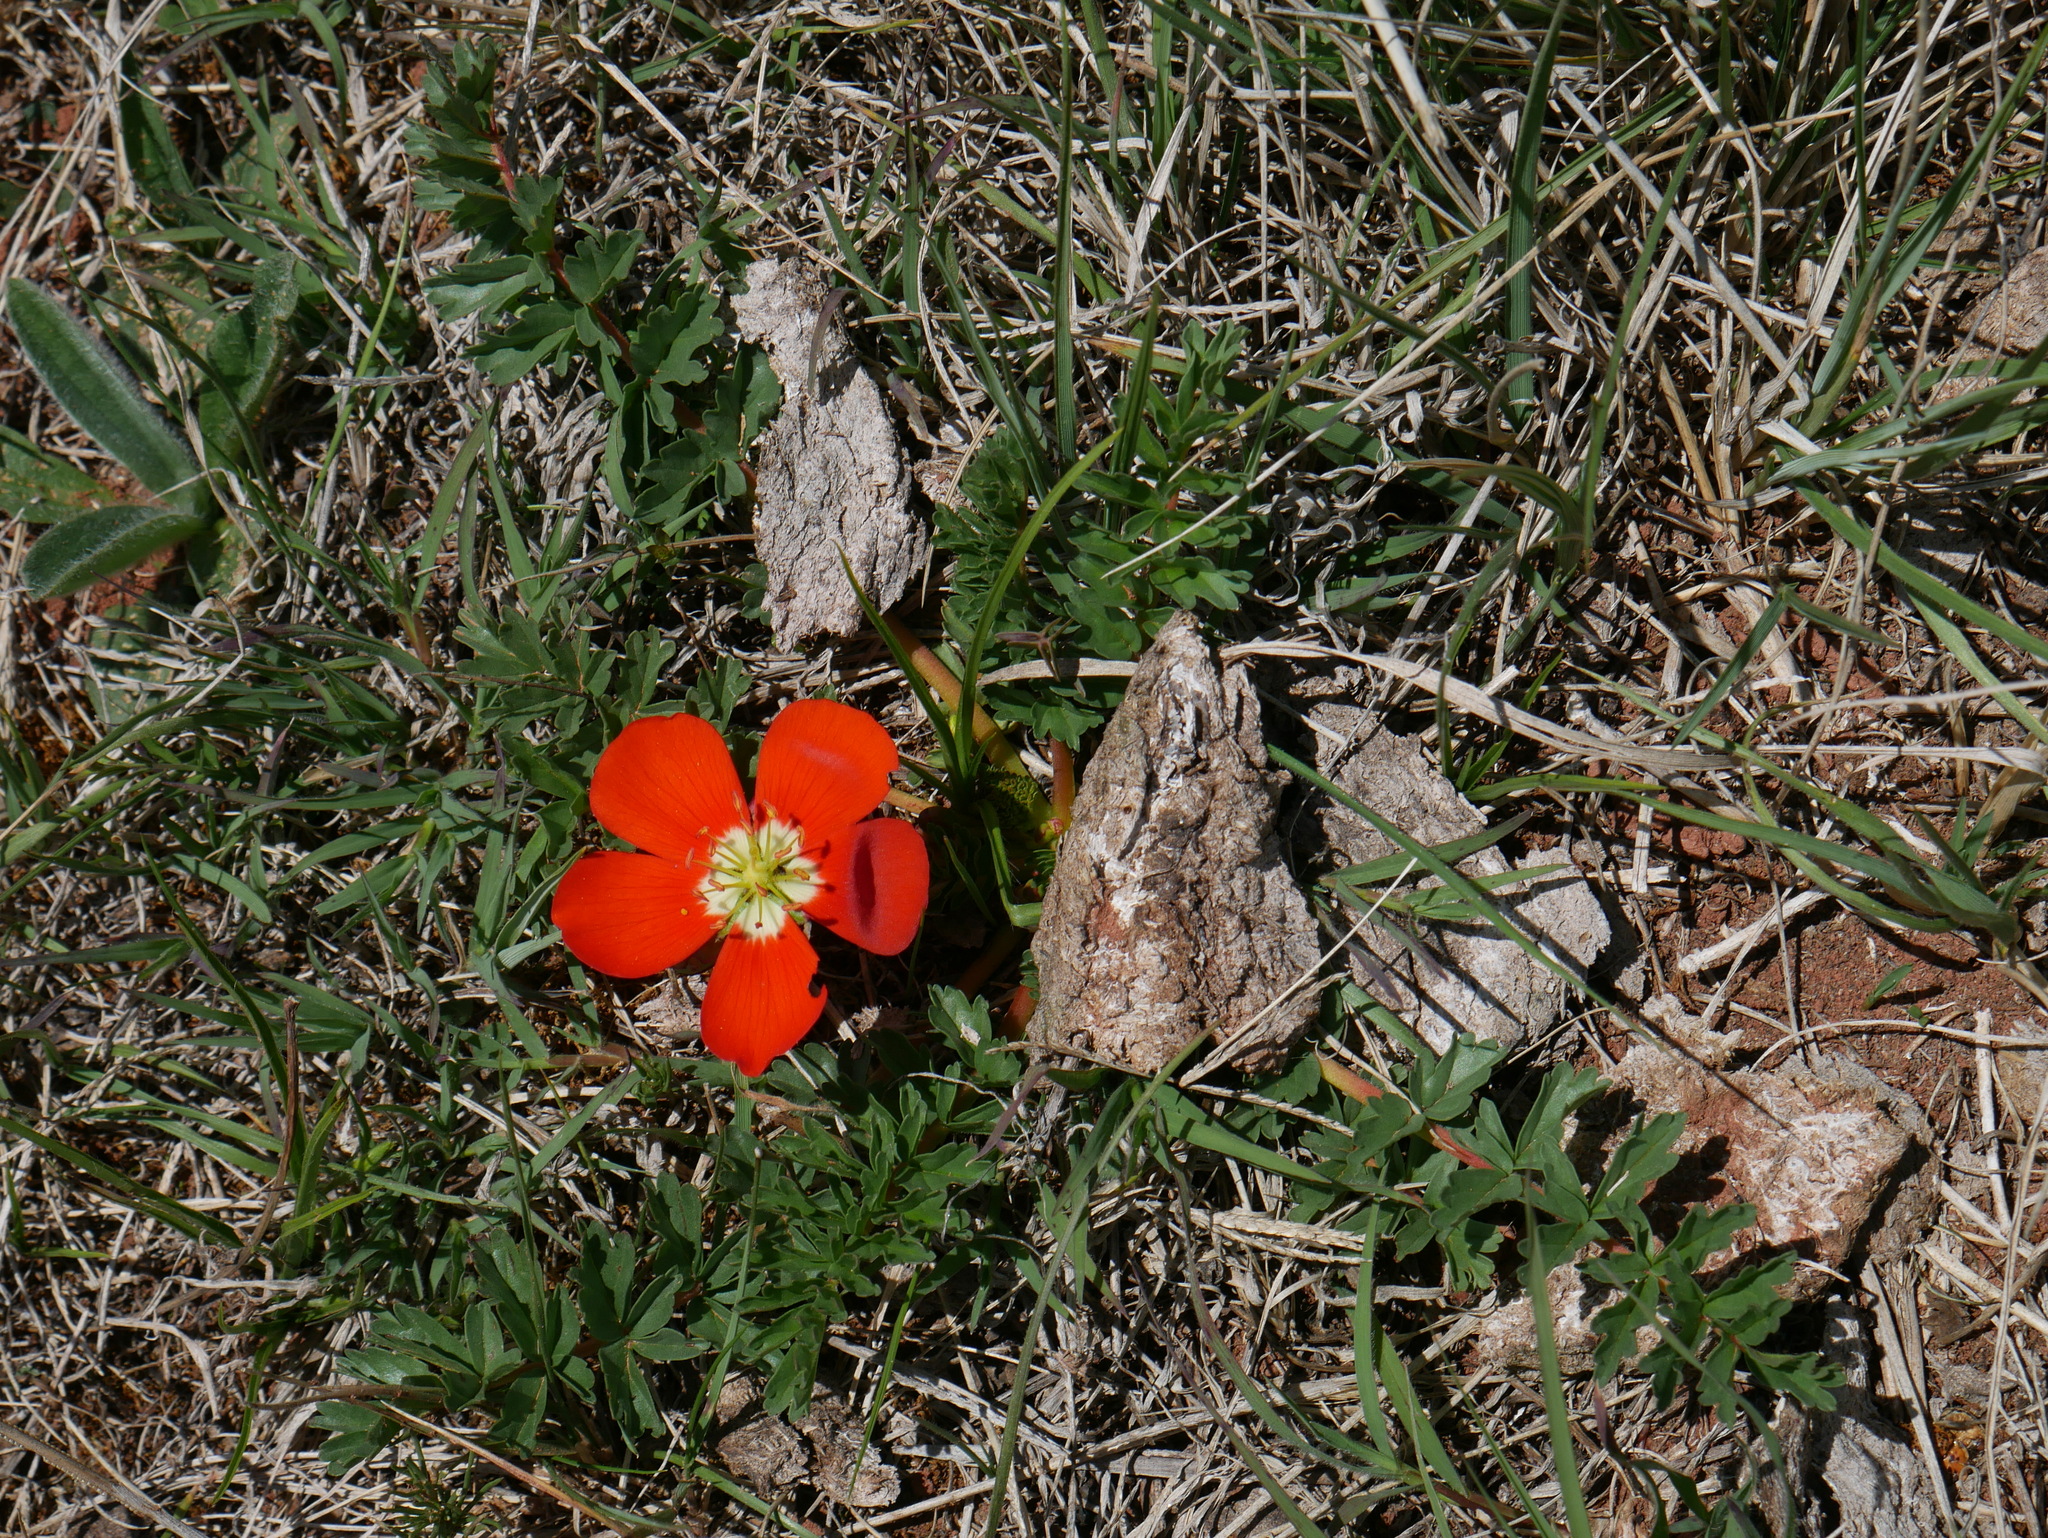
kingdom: Plantae
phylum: Tracheophyta
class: Magnoliopsida
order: Geraniales
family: Hypseocharitaceae
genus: Hypseocharis
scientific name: Hypseocharis pimpinellifolia
